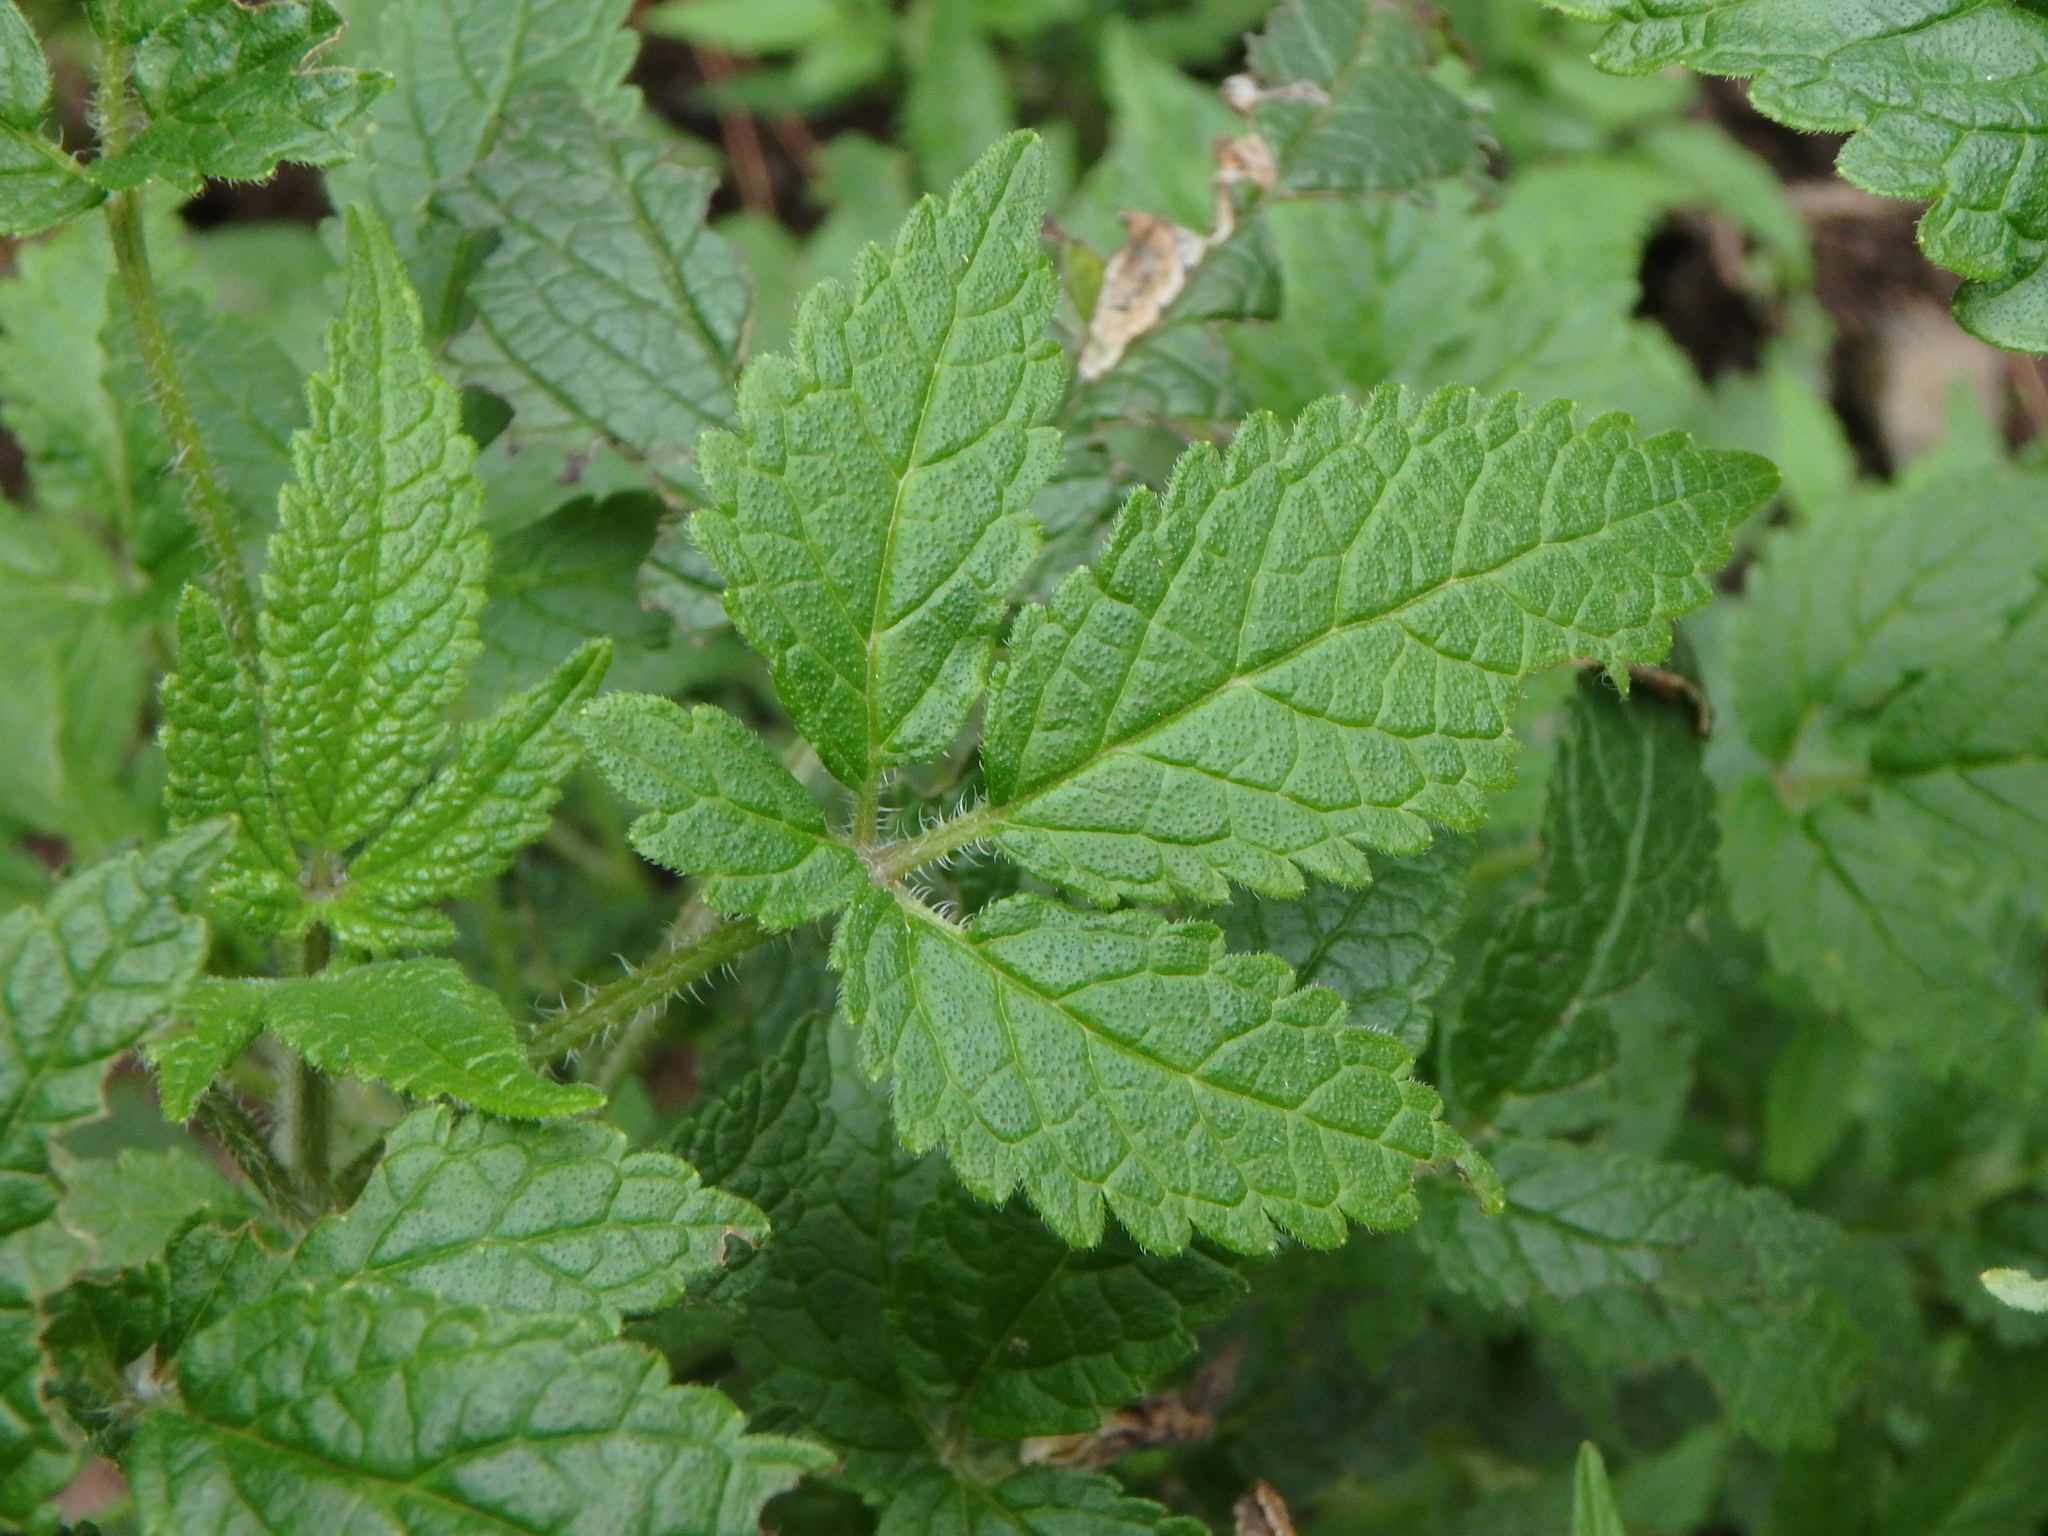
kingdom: Plantae
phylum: Tracheophyta
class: Magnoliopsida
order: Lamiales
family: Lamiaceae
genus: Cedronella
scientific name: Cedronella canariensis
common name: Canary islands balm
